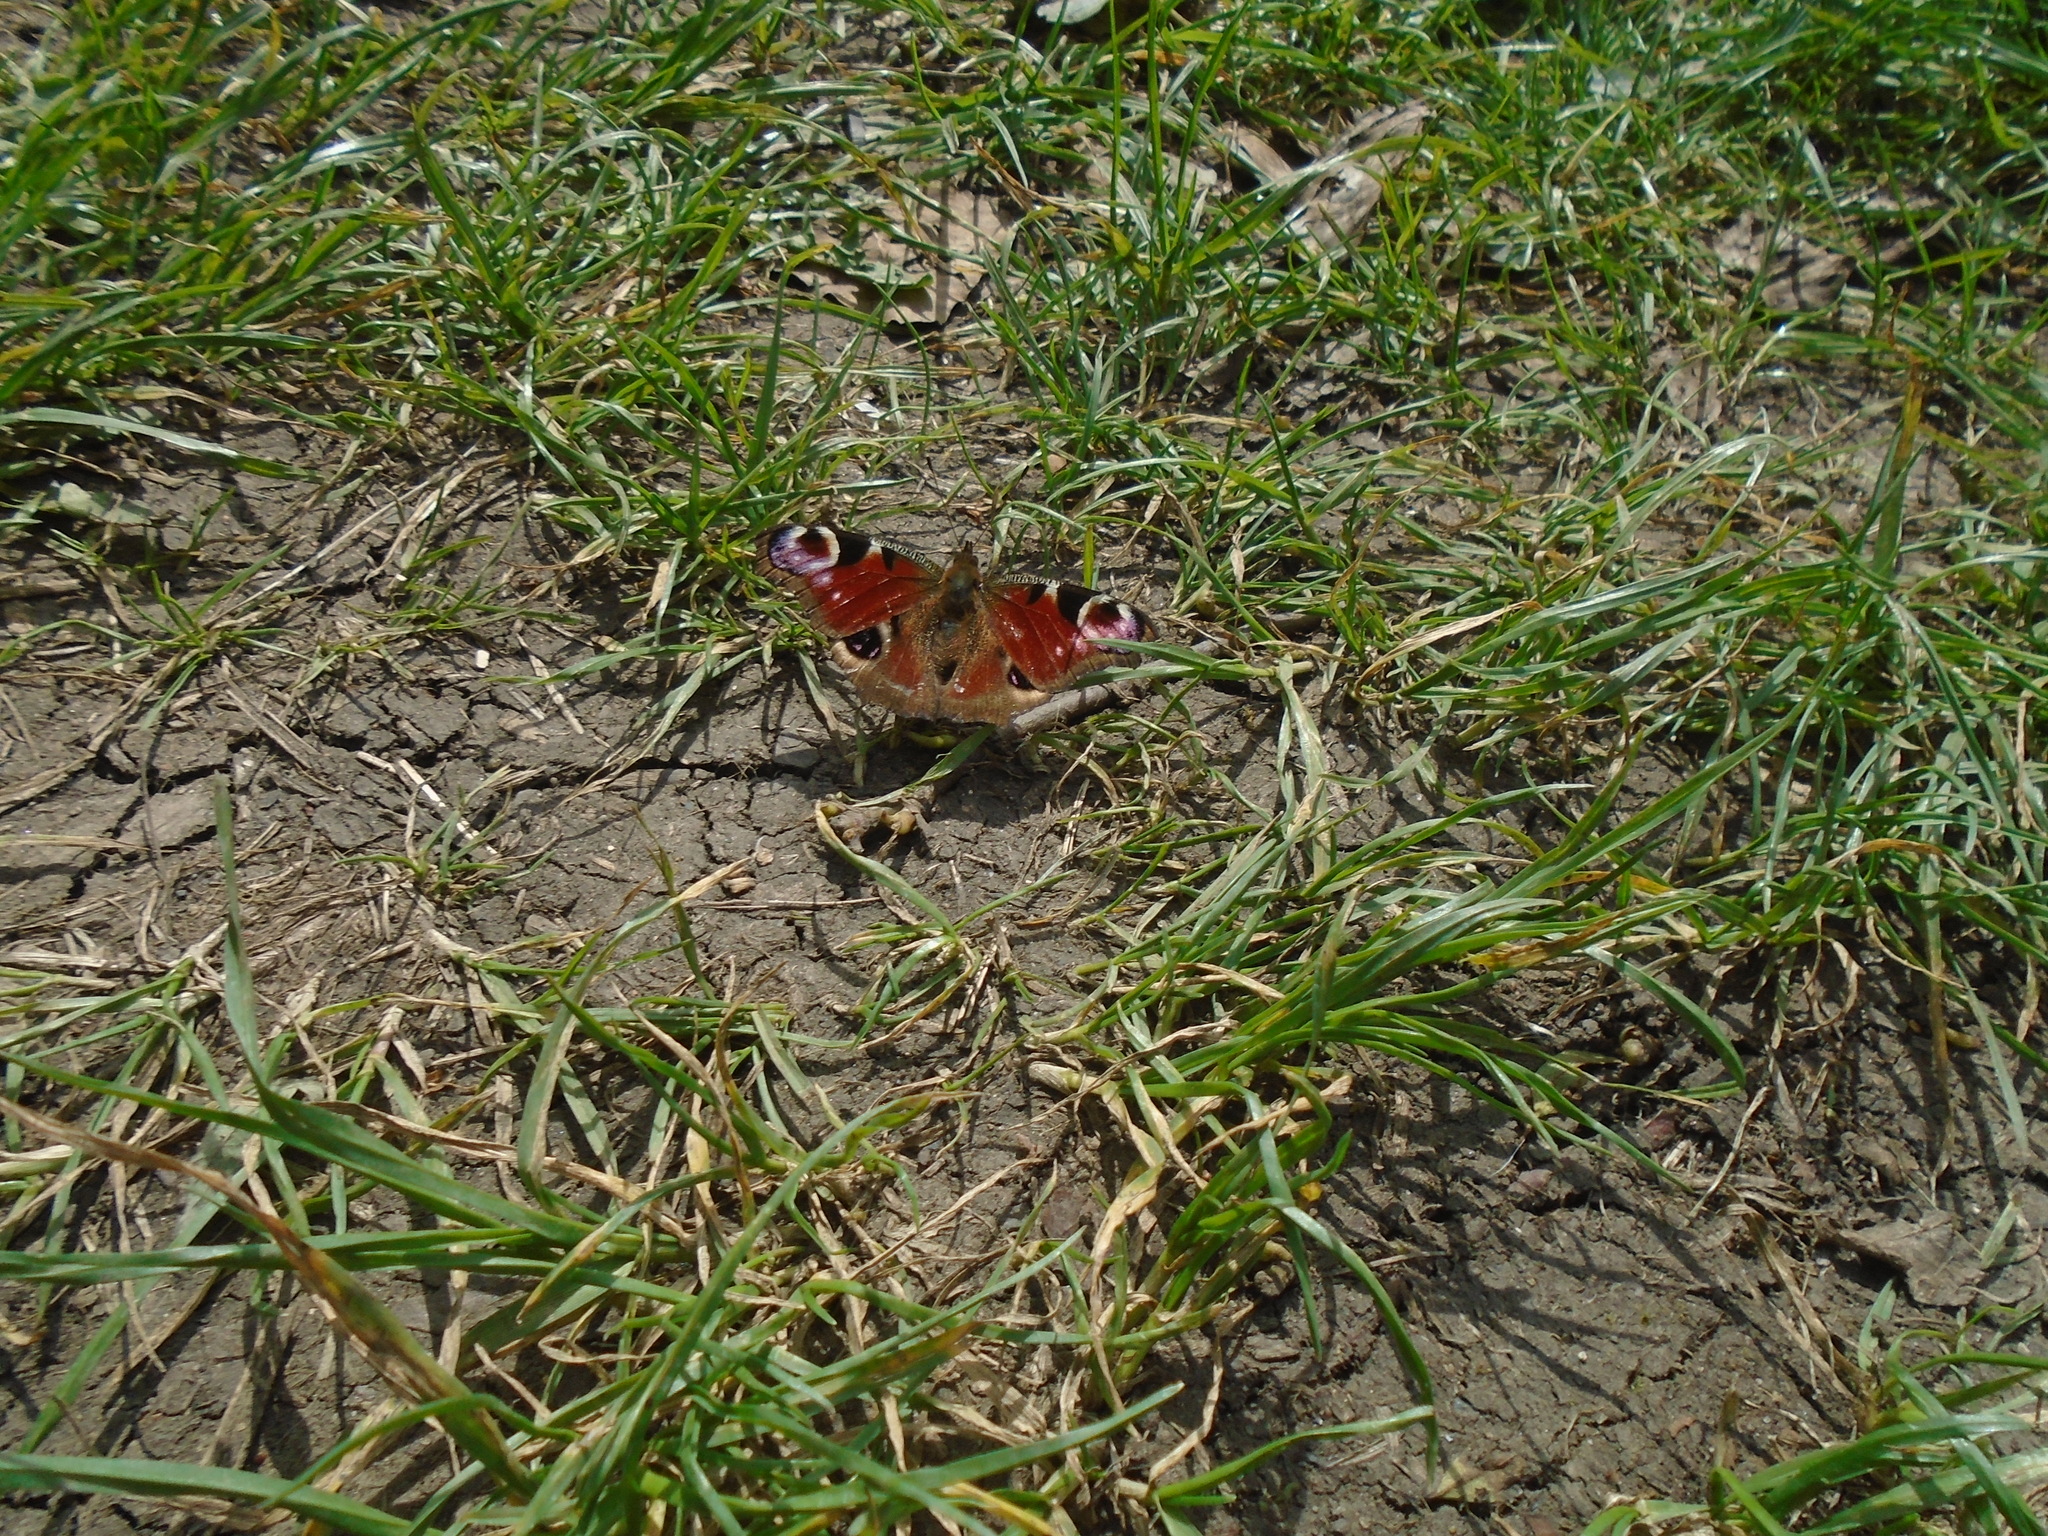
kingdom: Animalia
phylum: Arthropoda
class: Insecta
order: Lepidoptera
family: Nymphalidae
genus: Aglais
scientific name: Aglais io
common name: Peacock
